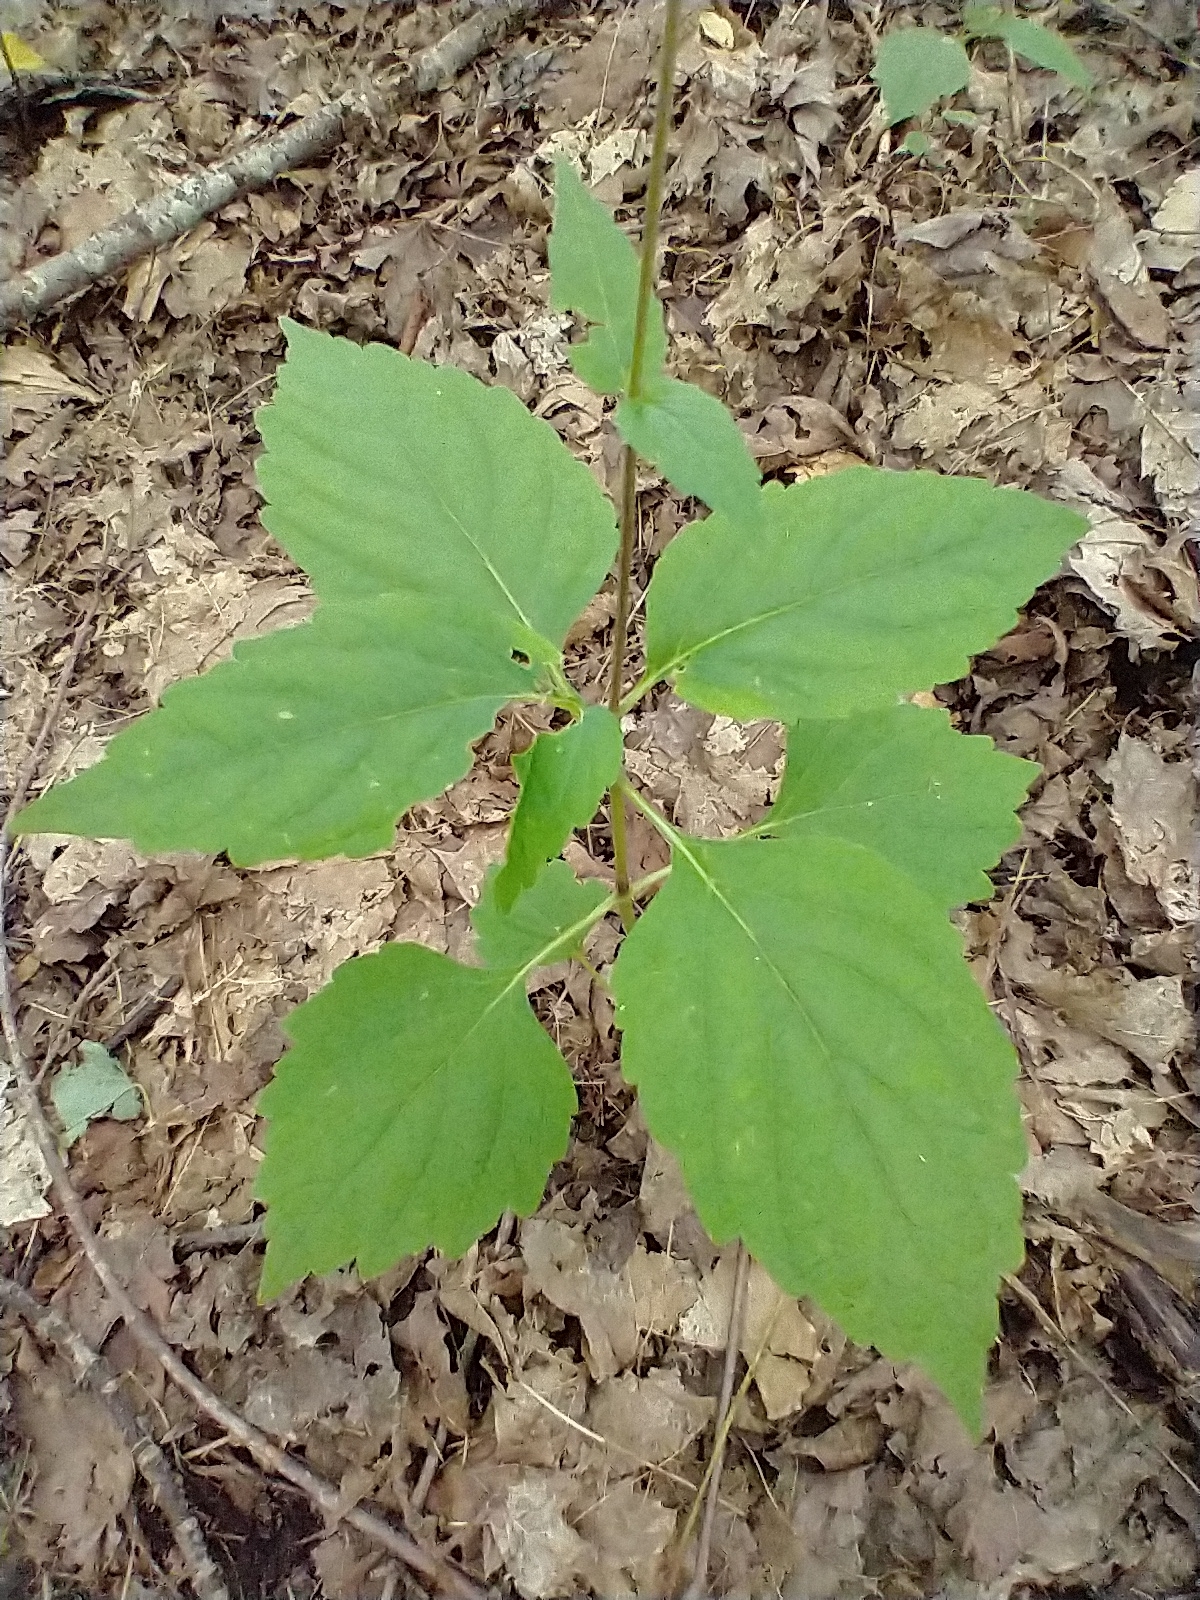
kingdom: Plantae
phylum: Tracheophyta
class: Magnoliopsida
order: Lamiales
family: Phrymaceae
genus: Phryma
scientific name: Phryma leptostachya
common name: American lopseed
